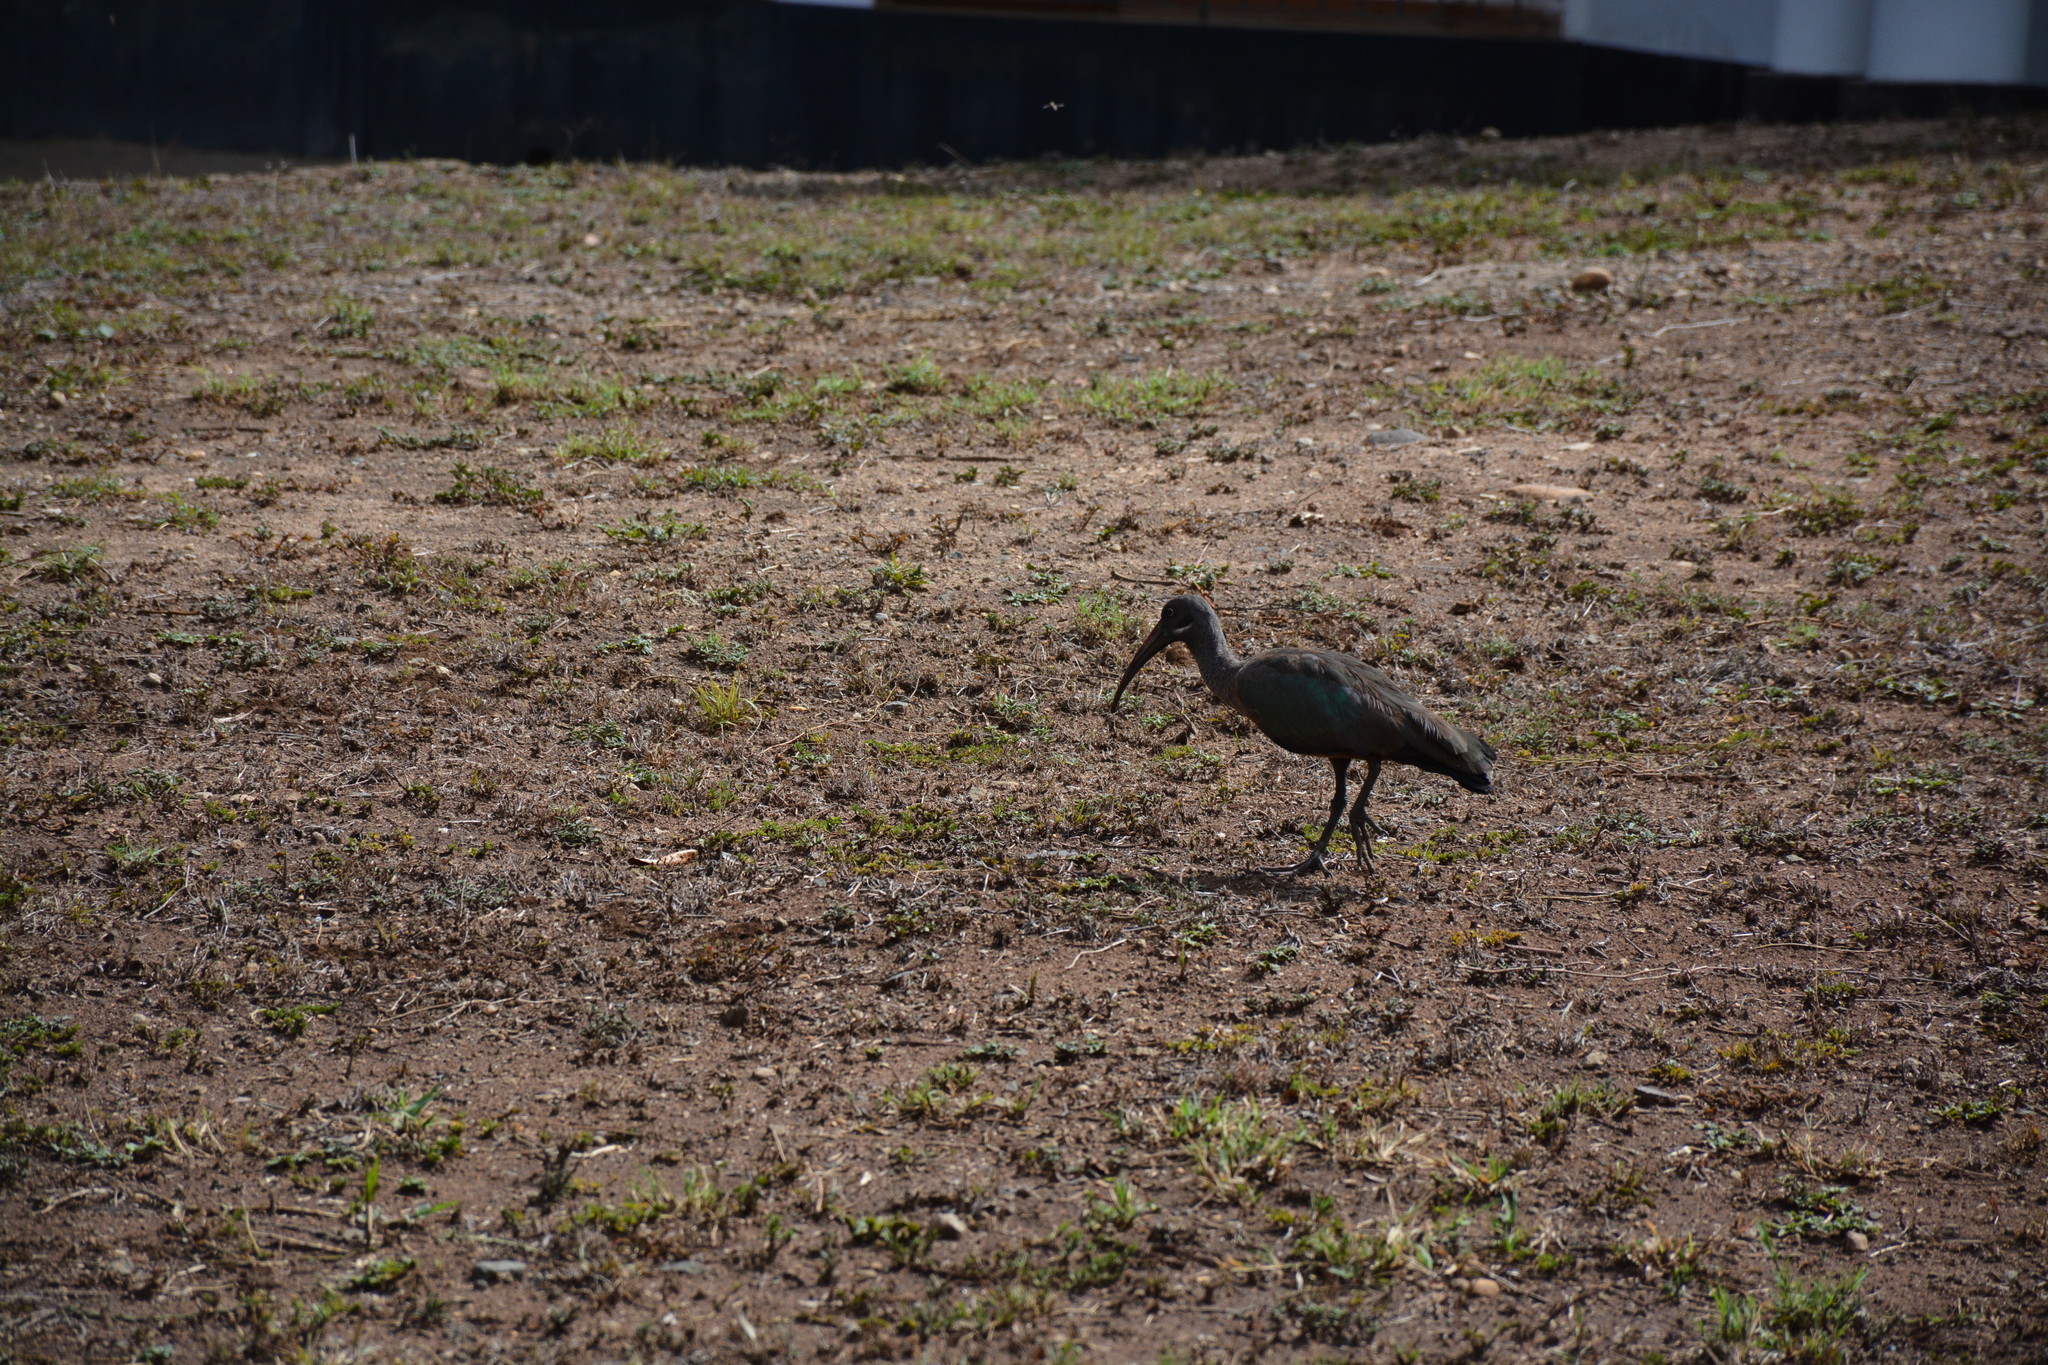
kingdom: Animalia
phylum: Chordata
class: Aves
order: Pelecaniformes
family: Threskiornithidae
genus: Bostrychia
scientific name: Bostrychia hagedash
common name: Hadada ibis
